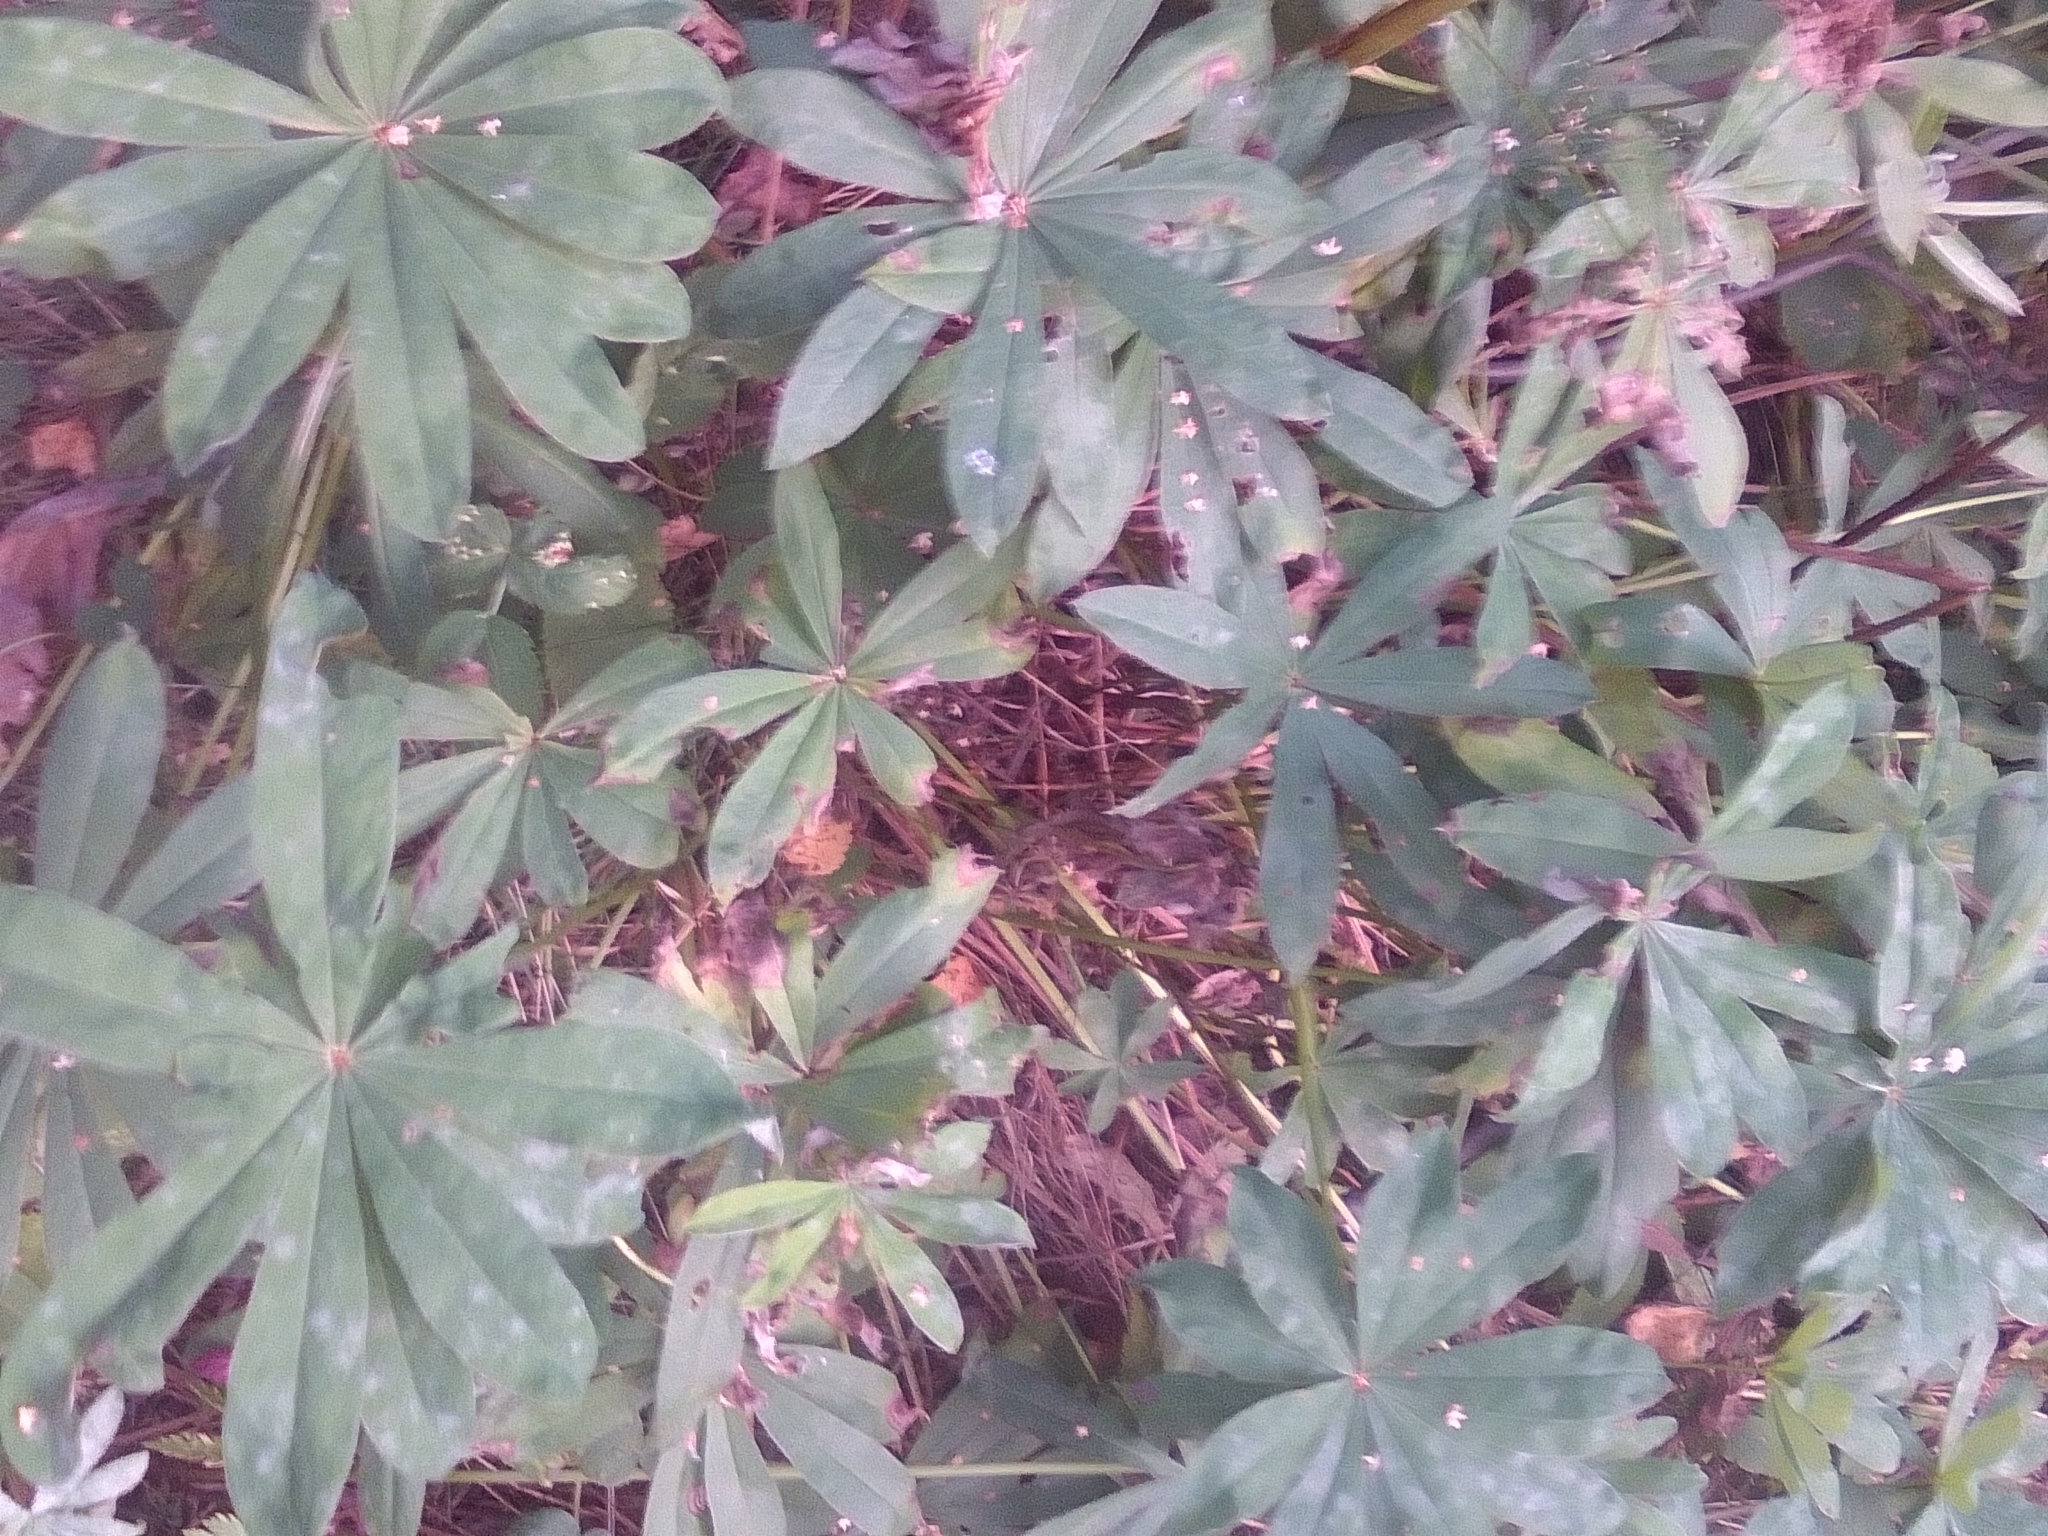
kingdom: Plantae
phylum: Tracheophyta
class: Magnoliopsida
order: Fabales
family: Fabaceae
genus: Lupinus
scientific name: Lupinus polyphyllus
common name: Garden lupin
